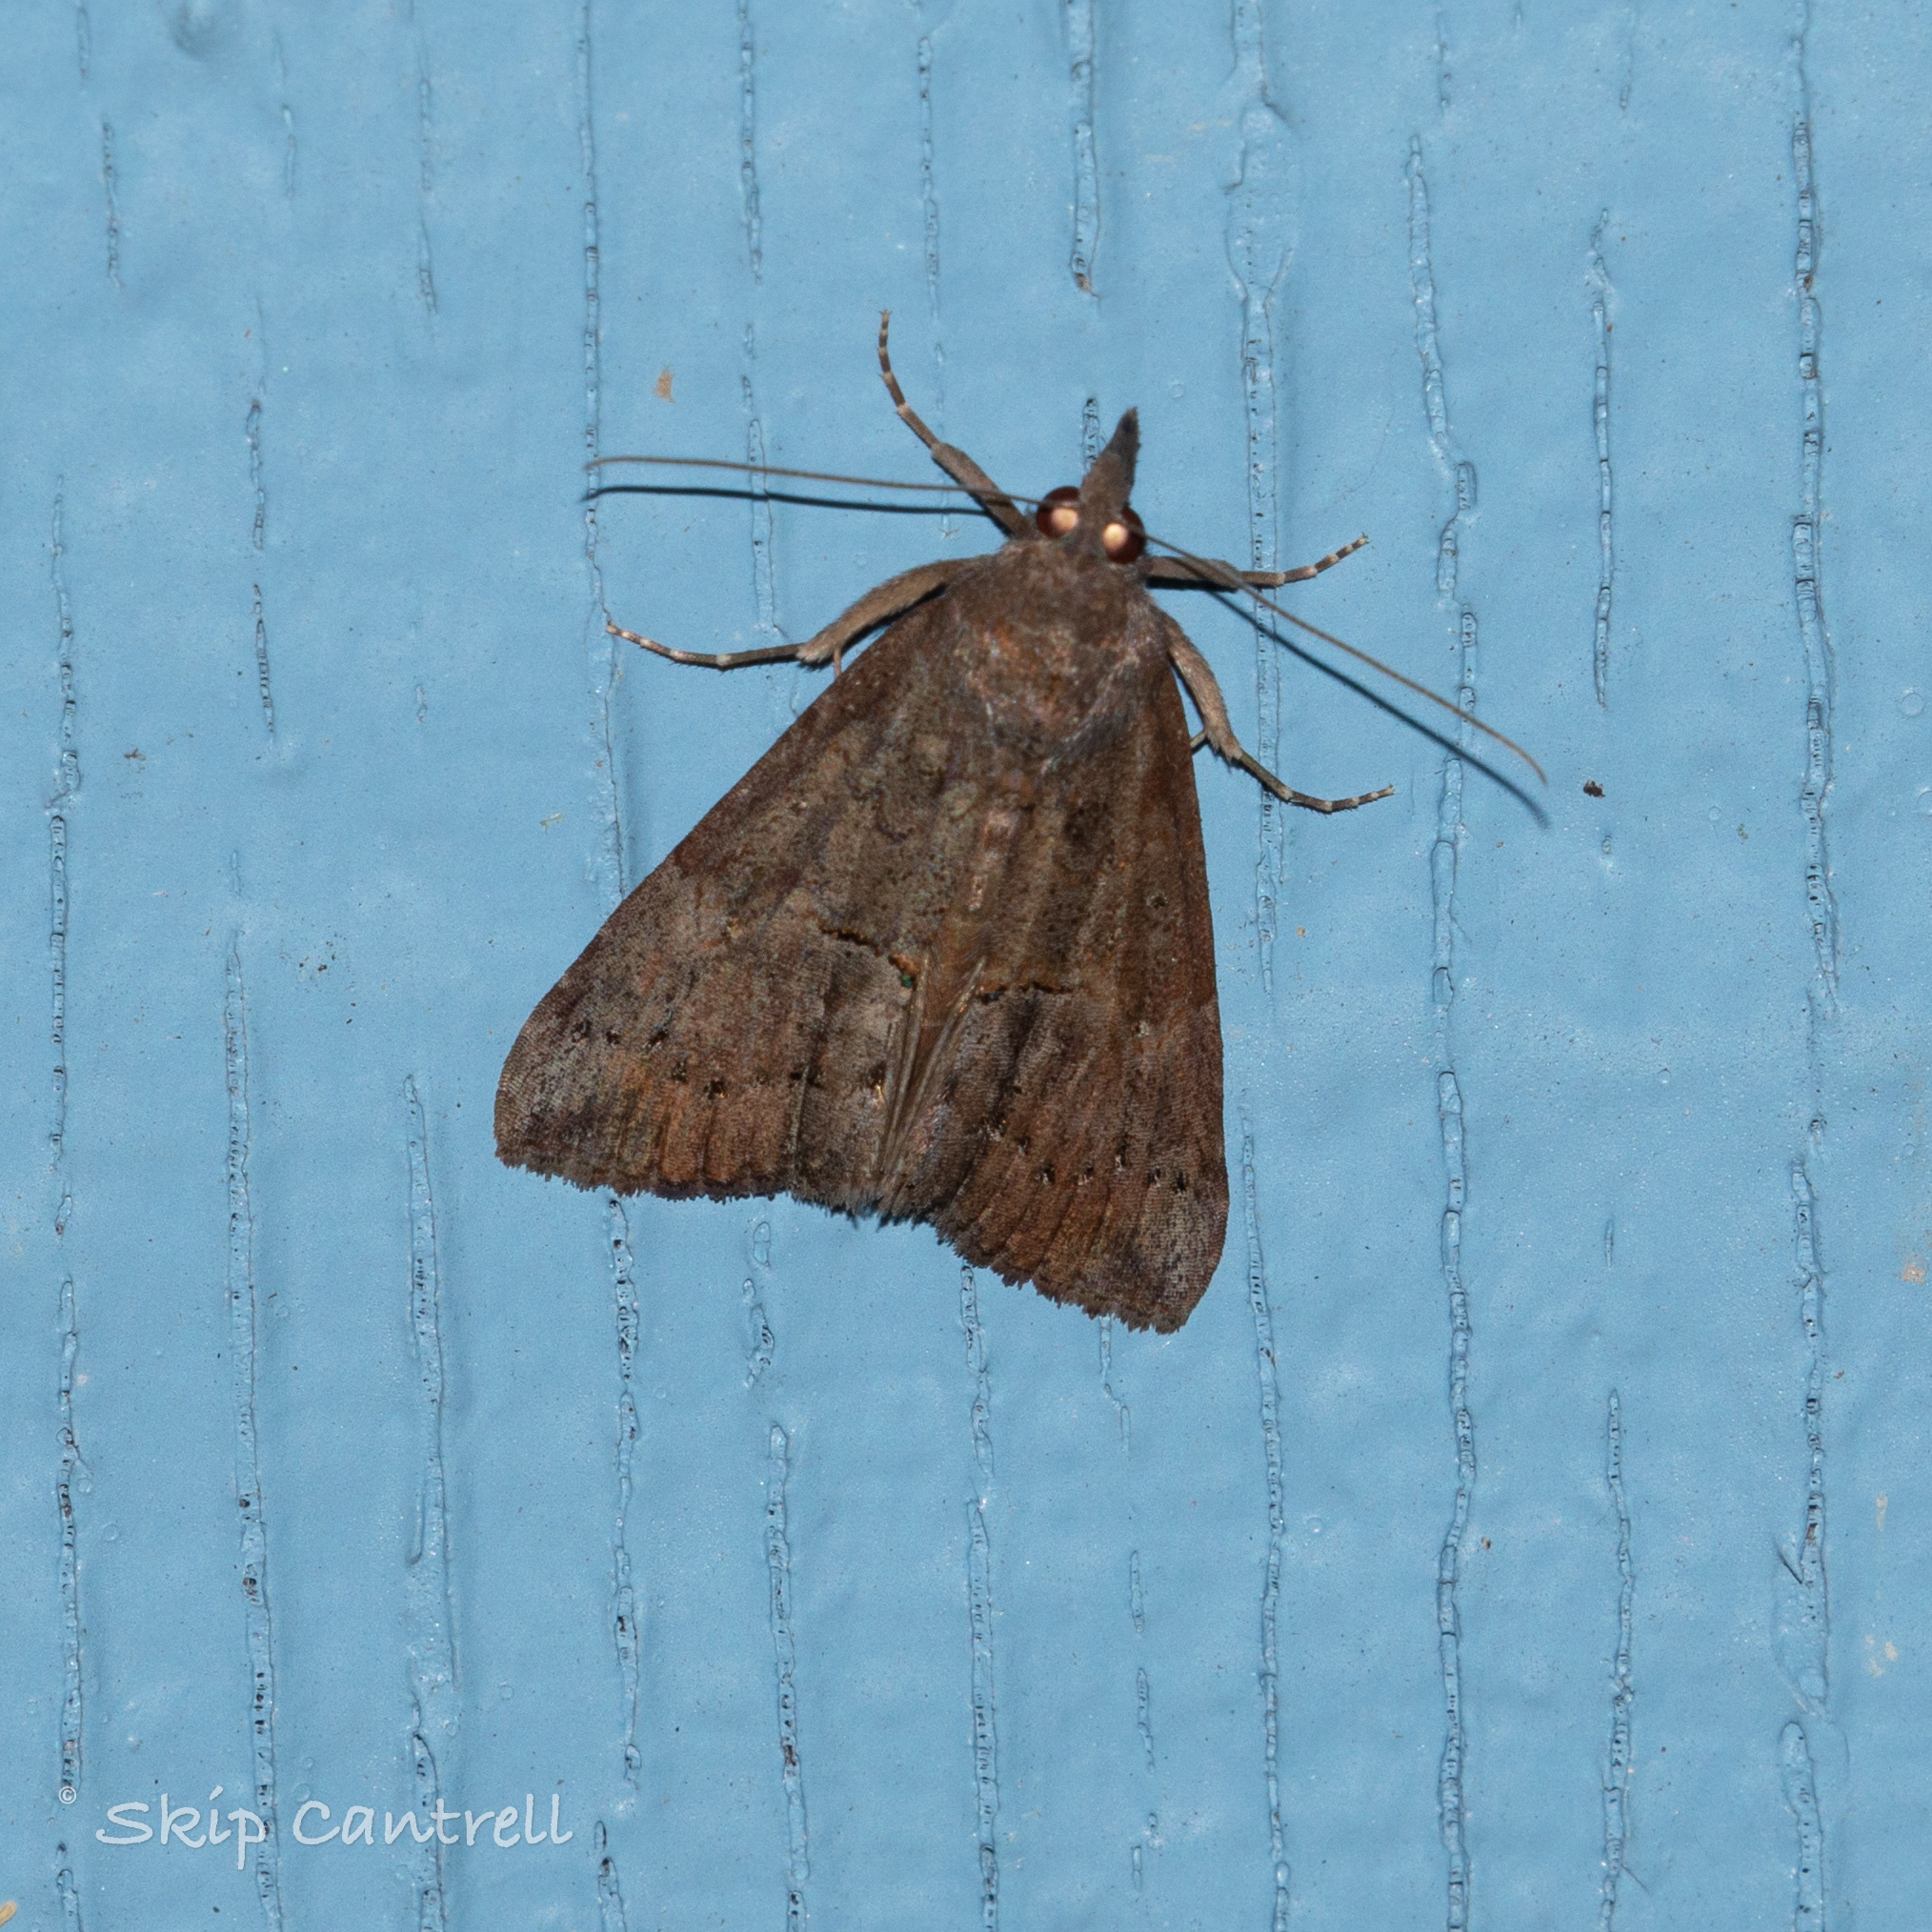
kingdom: Animalia
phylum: Arthropoda
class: Insecta
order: Lepidoptera
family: Erebidae
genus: Hypena
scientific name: Hypena scabra
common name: Green cloverworm
